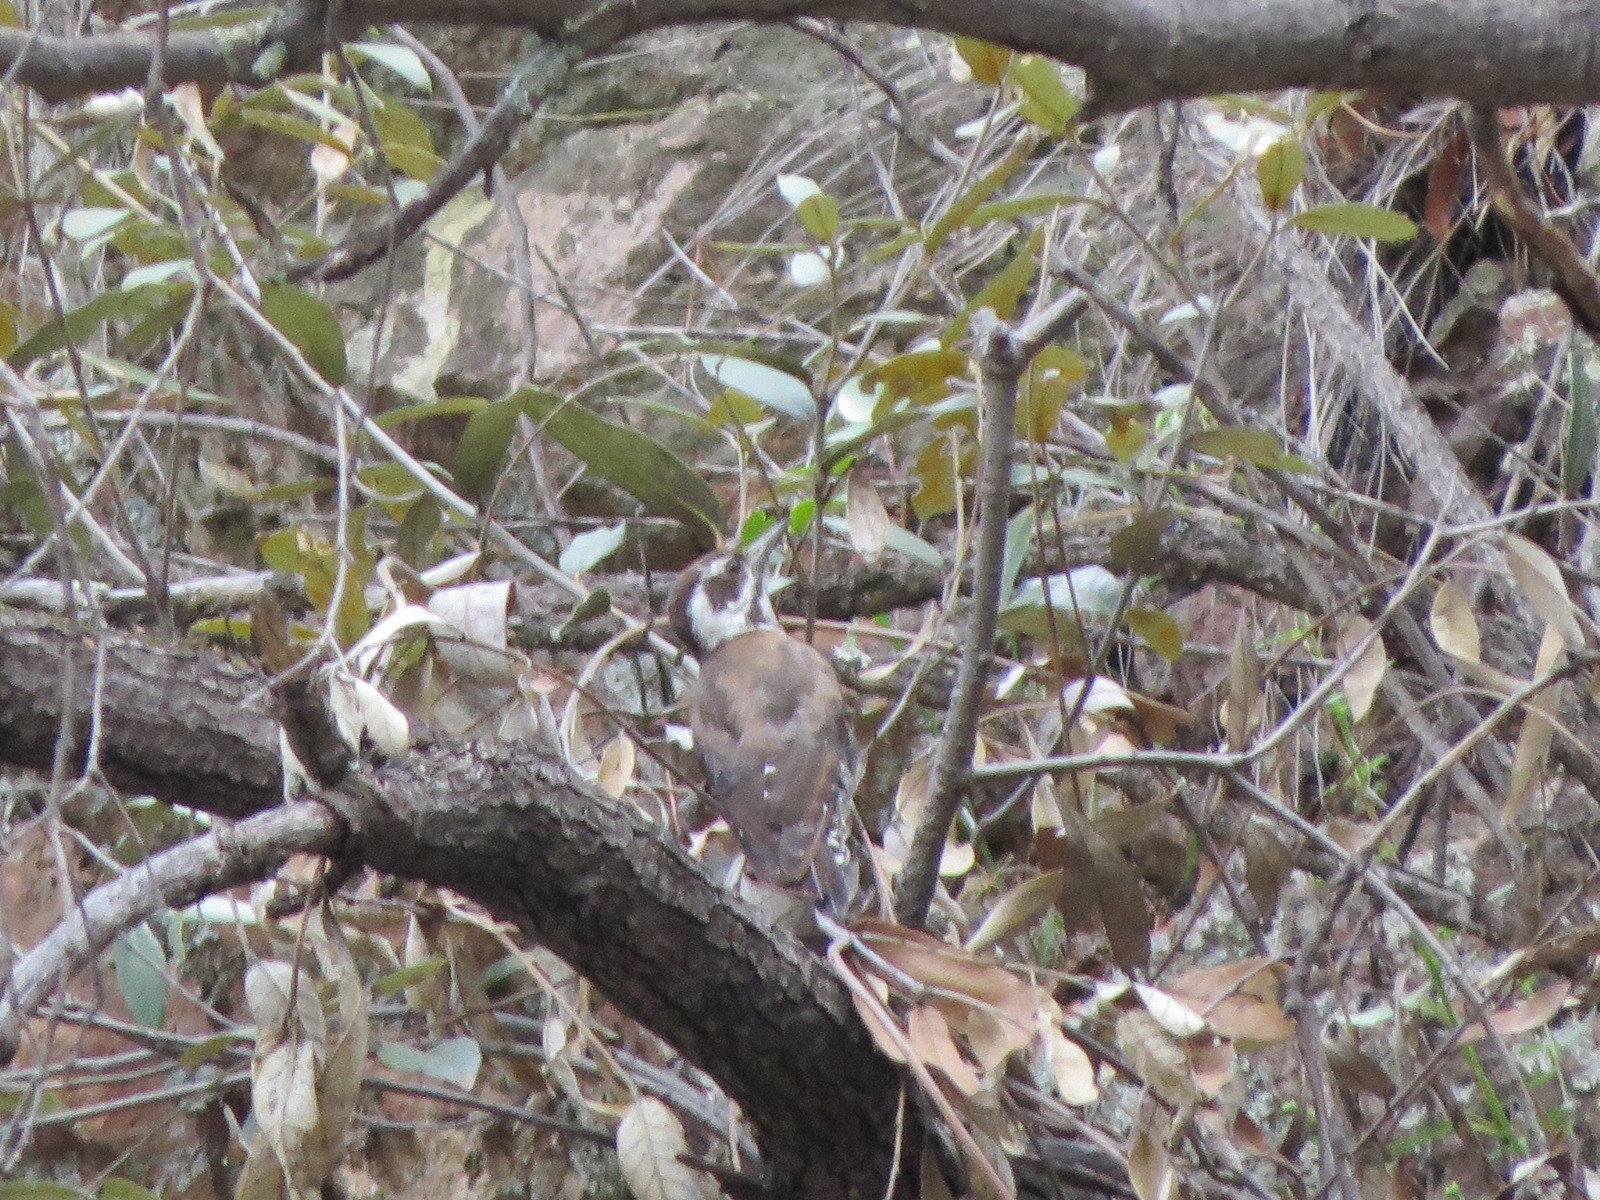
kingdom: Animalia
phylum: Chordata
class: Aves
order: Piciformes
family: Picidae
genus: Leuconotopicus
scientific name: Leuconotopicus arizonae
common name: Arizona woodpecker
